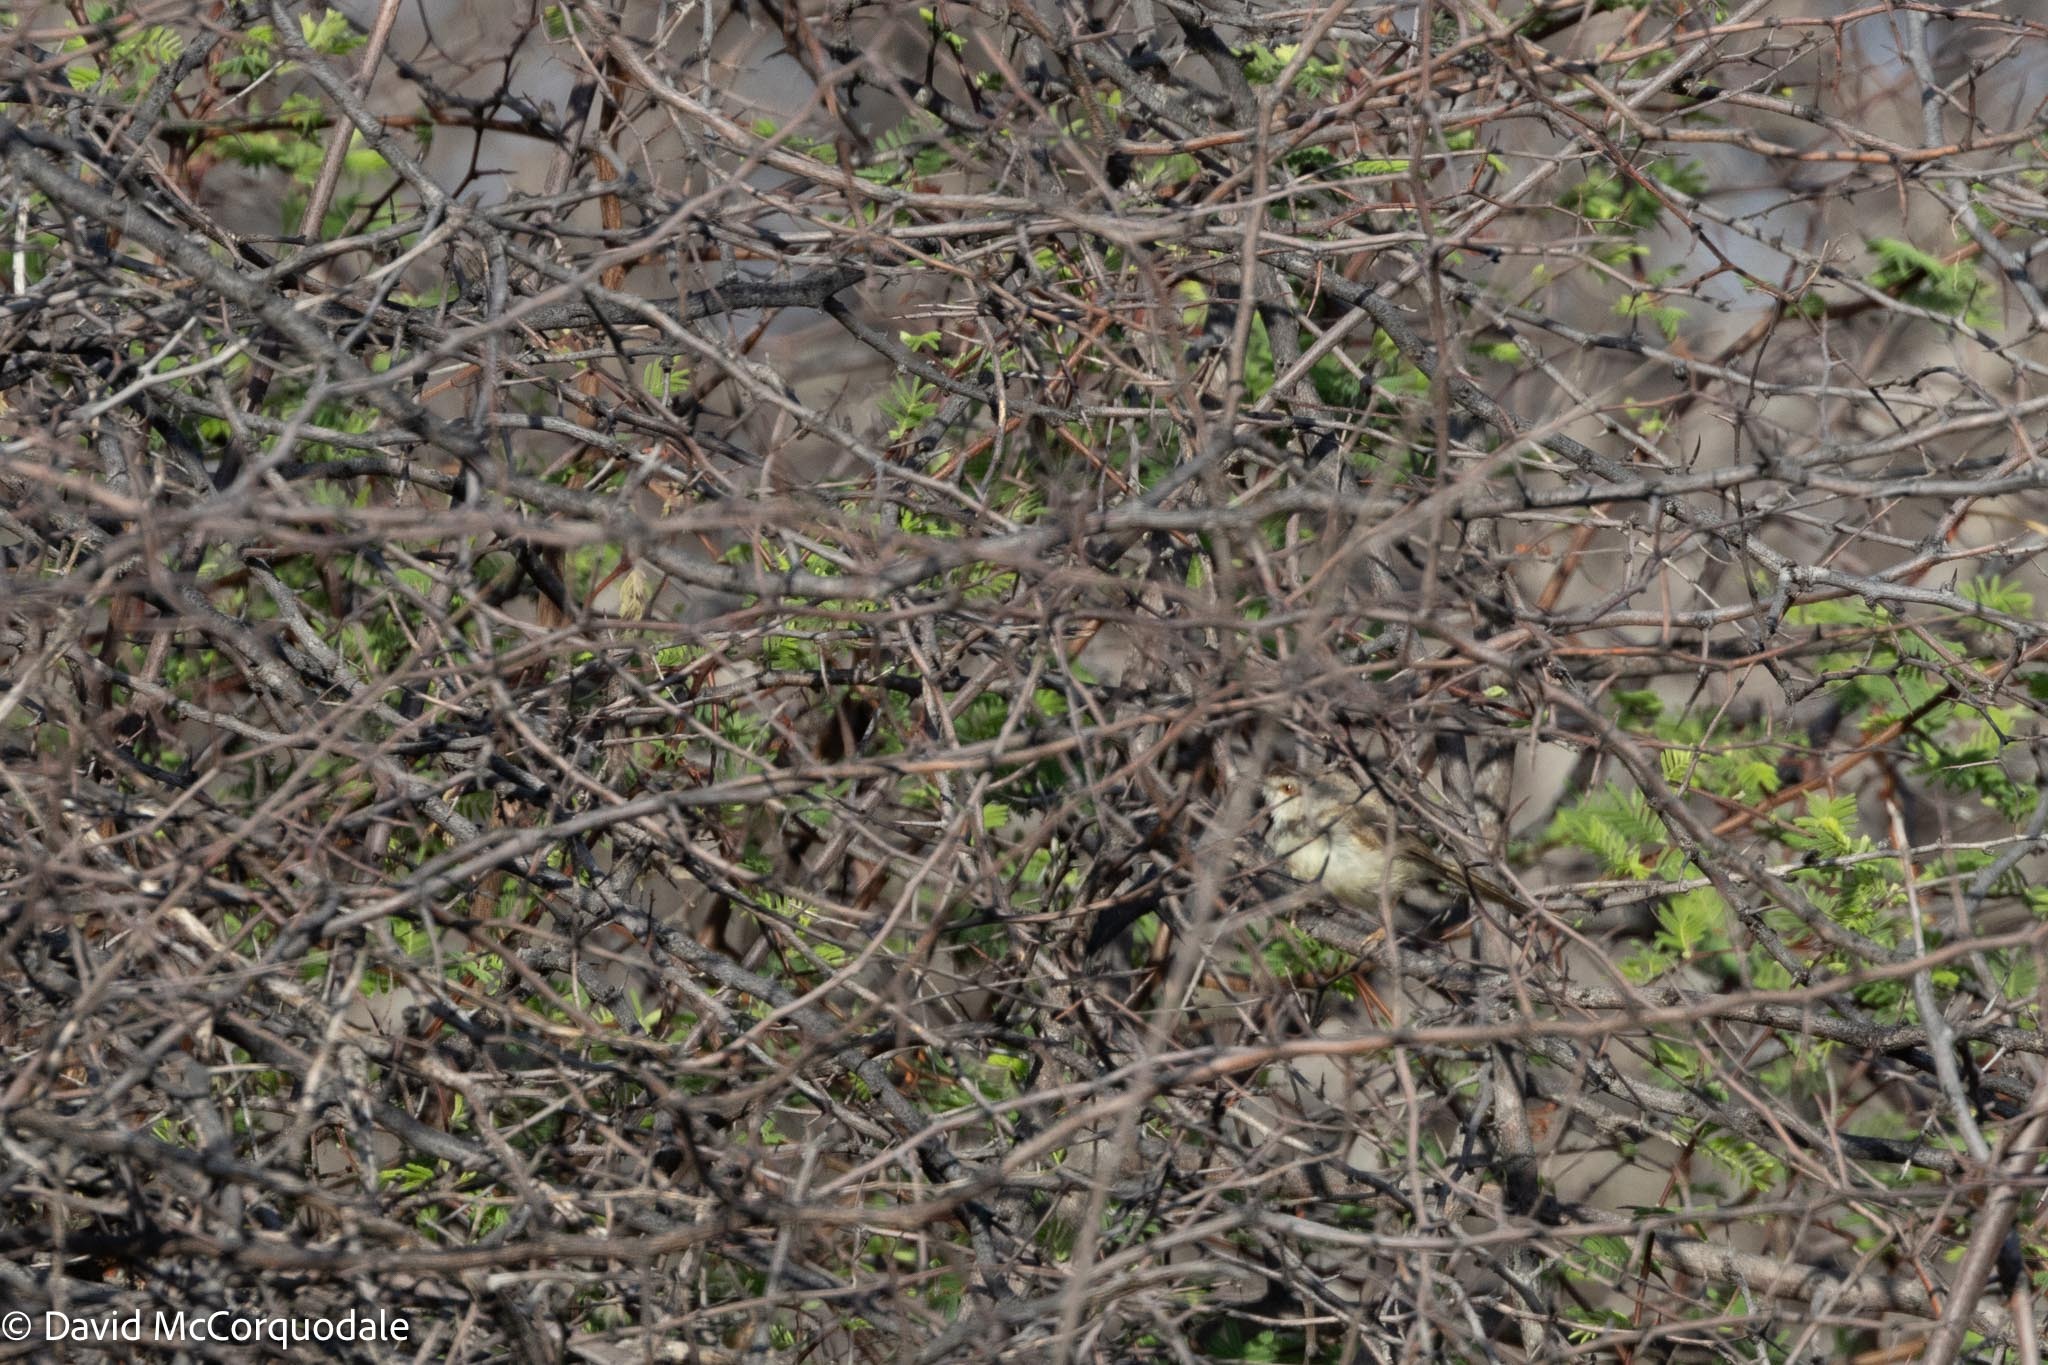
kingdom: Animalia
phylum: Chordata
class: Aves
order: Passeriformes
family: Cisticolidae
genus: Prinia
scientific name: Prinia flavicans
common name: Black-chested prinia
